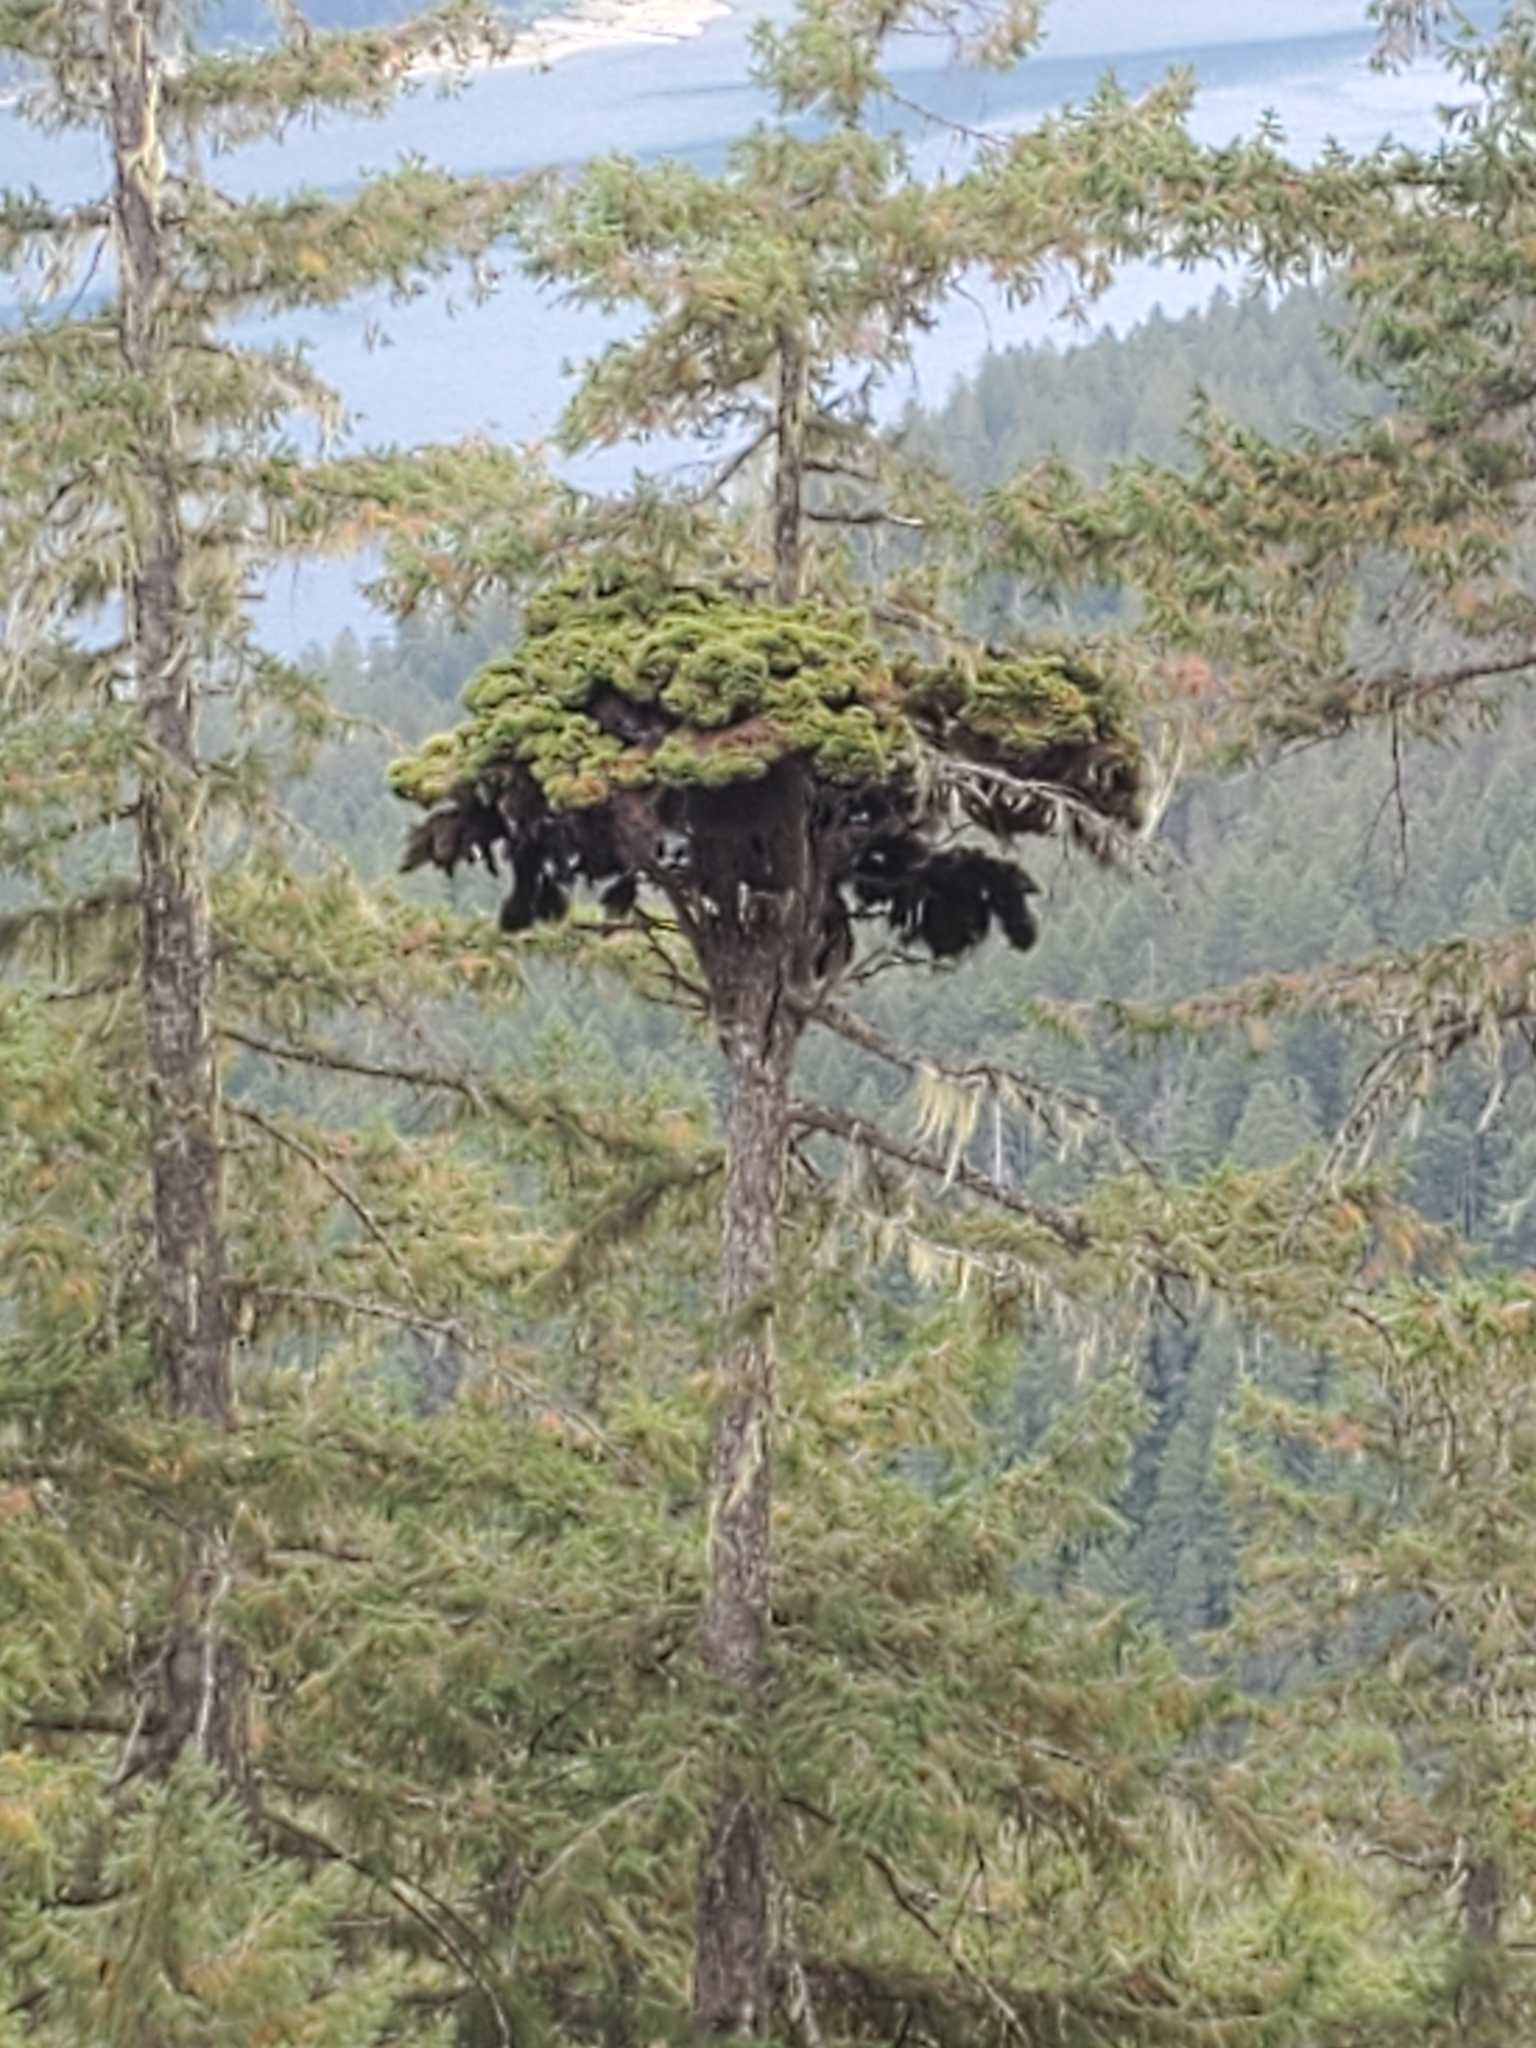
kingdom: Plantae
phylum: Tracheophyta
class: Magnoliopsida
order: Santalales
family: Viscaceae
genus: Arceuthobium
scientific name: Arceuthobium douglasii
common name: Douglas' dwarf mistletoe
